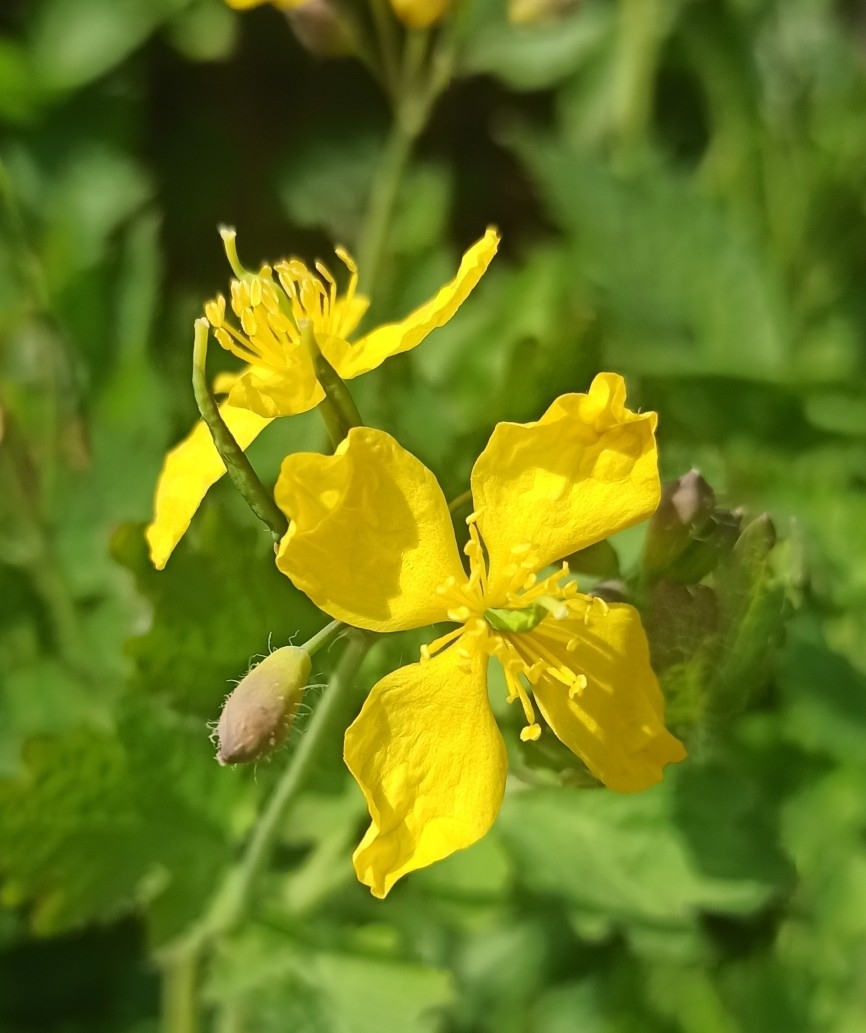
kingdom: Plantae
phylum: Tracheophyta
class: Magnoliopsida
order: Ranunculales
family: Papaveraceae
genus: Chelidonium
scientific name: Chelidonium majus
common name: Greater celandine
